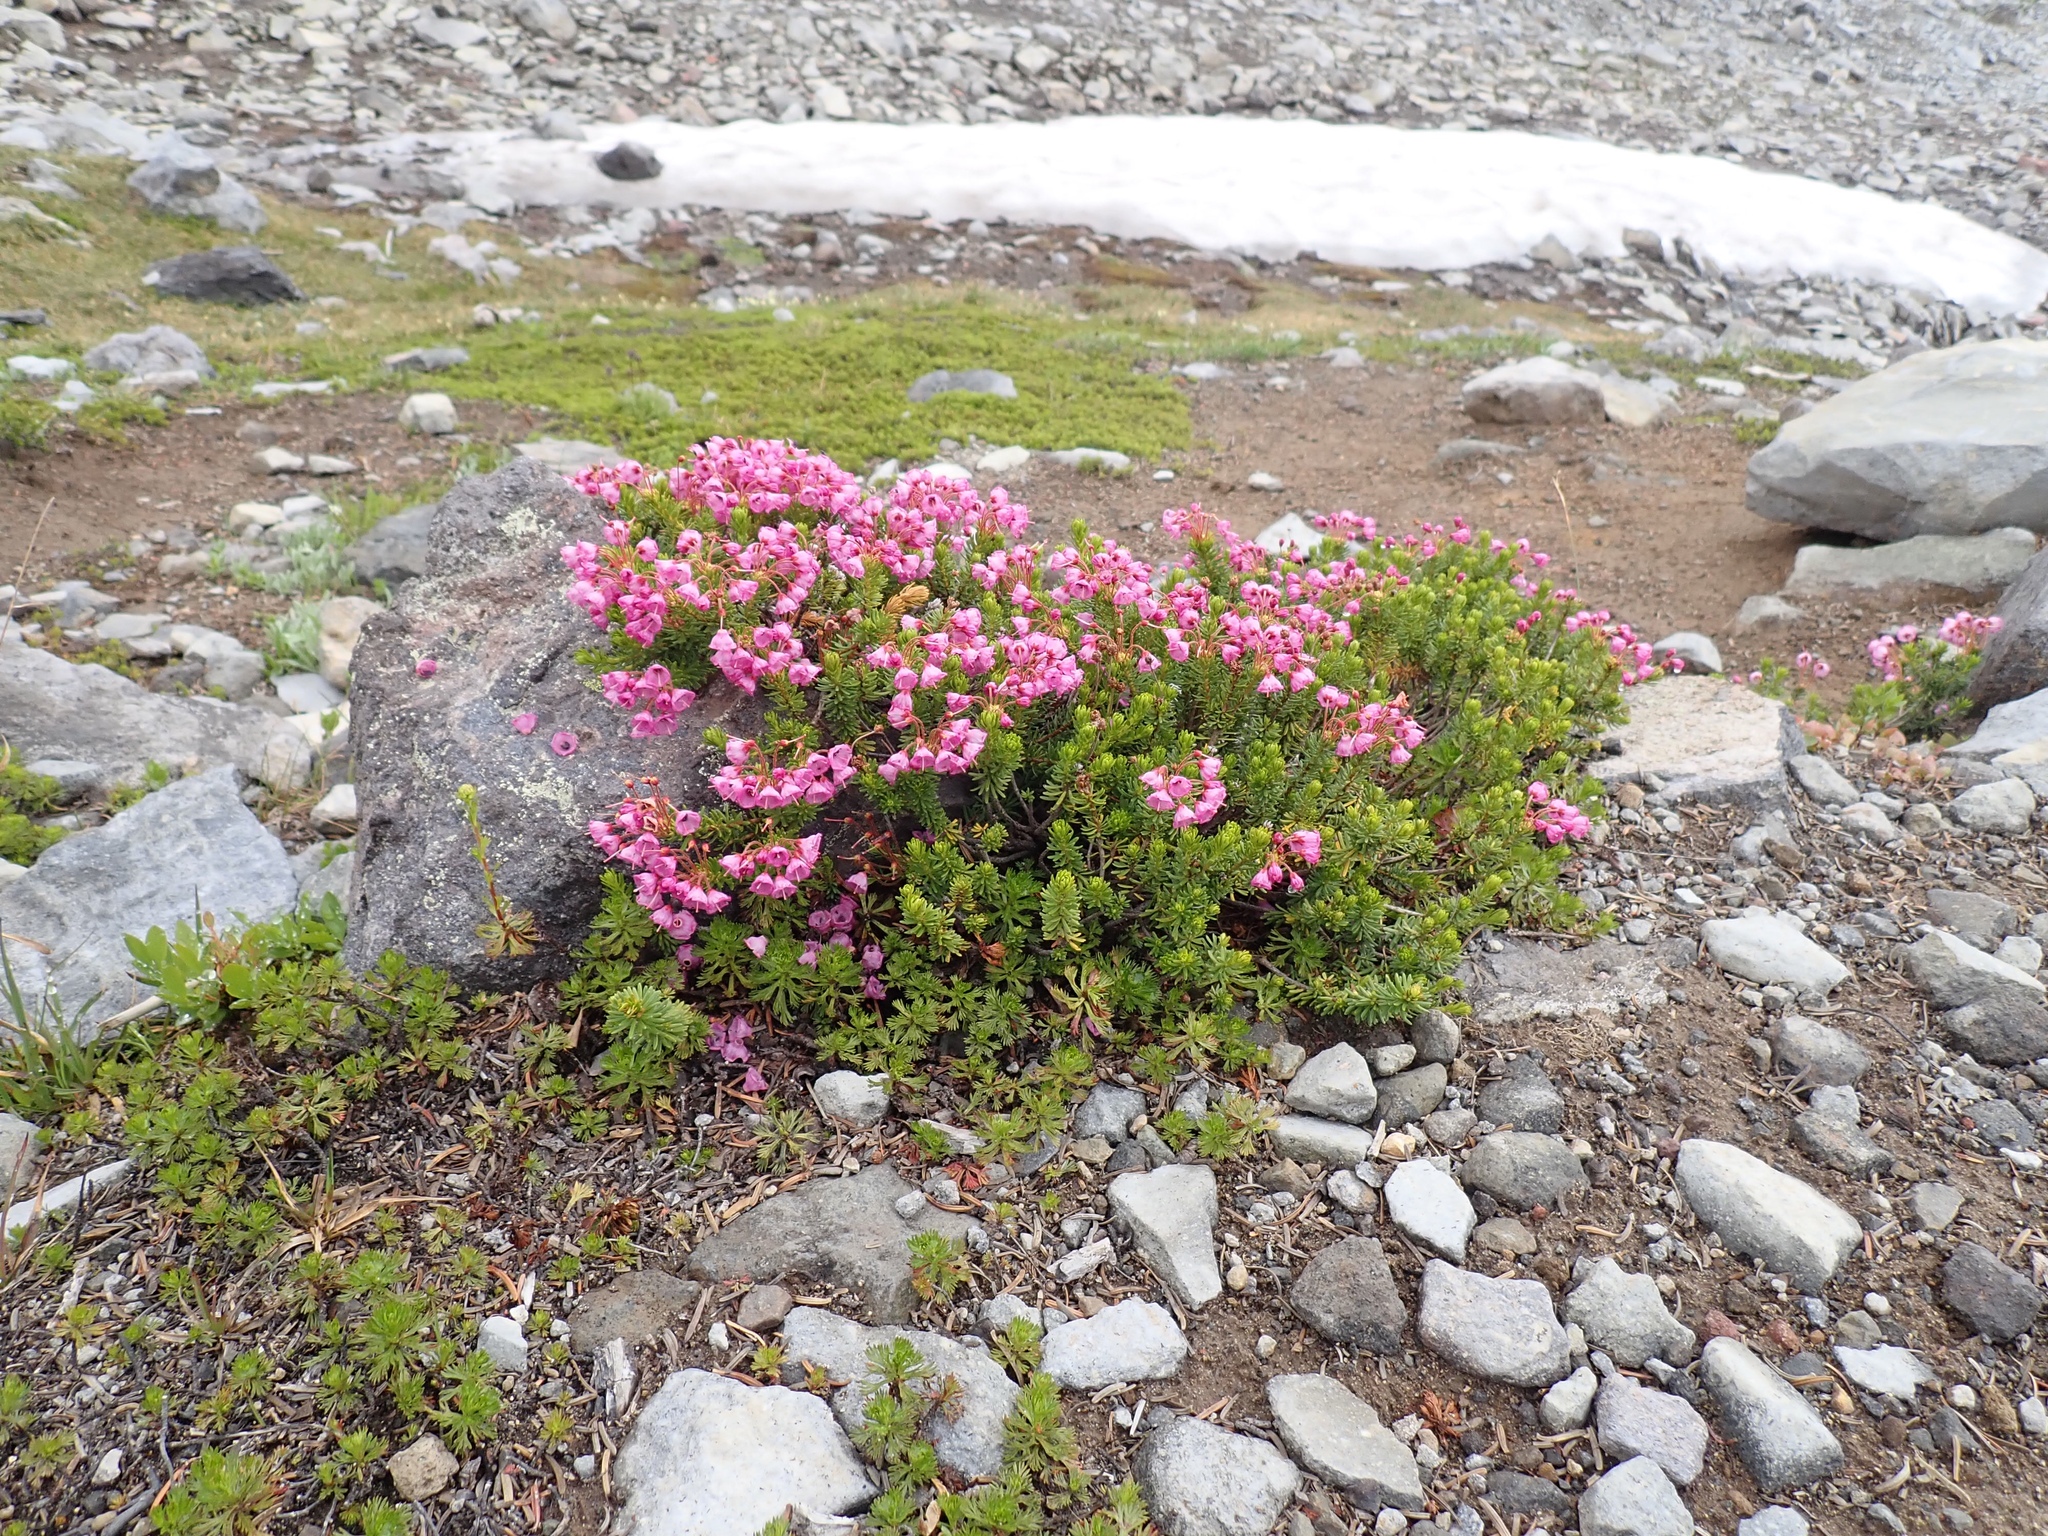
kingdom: Plantae
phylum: Tracheophyta
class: Magnoliopsida
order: Ericales
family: Ericaceae
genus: Phyllodoce
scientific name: Phyllodoce empetriformis
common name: Pink mountain heather
